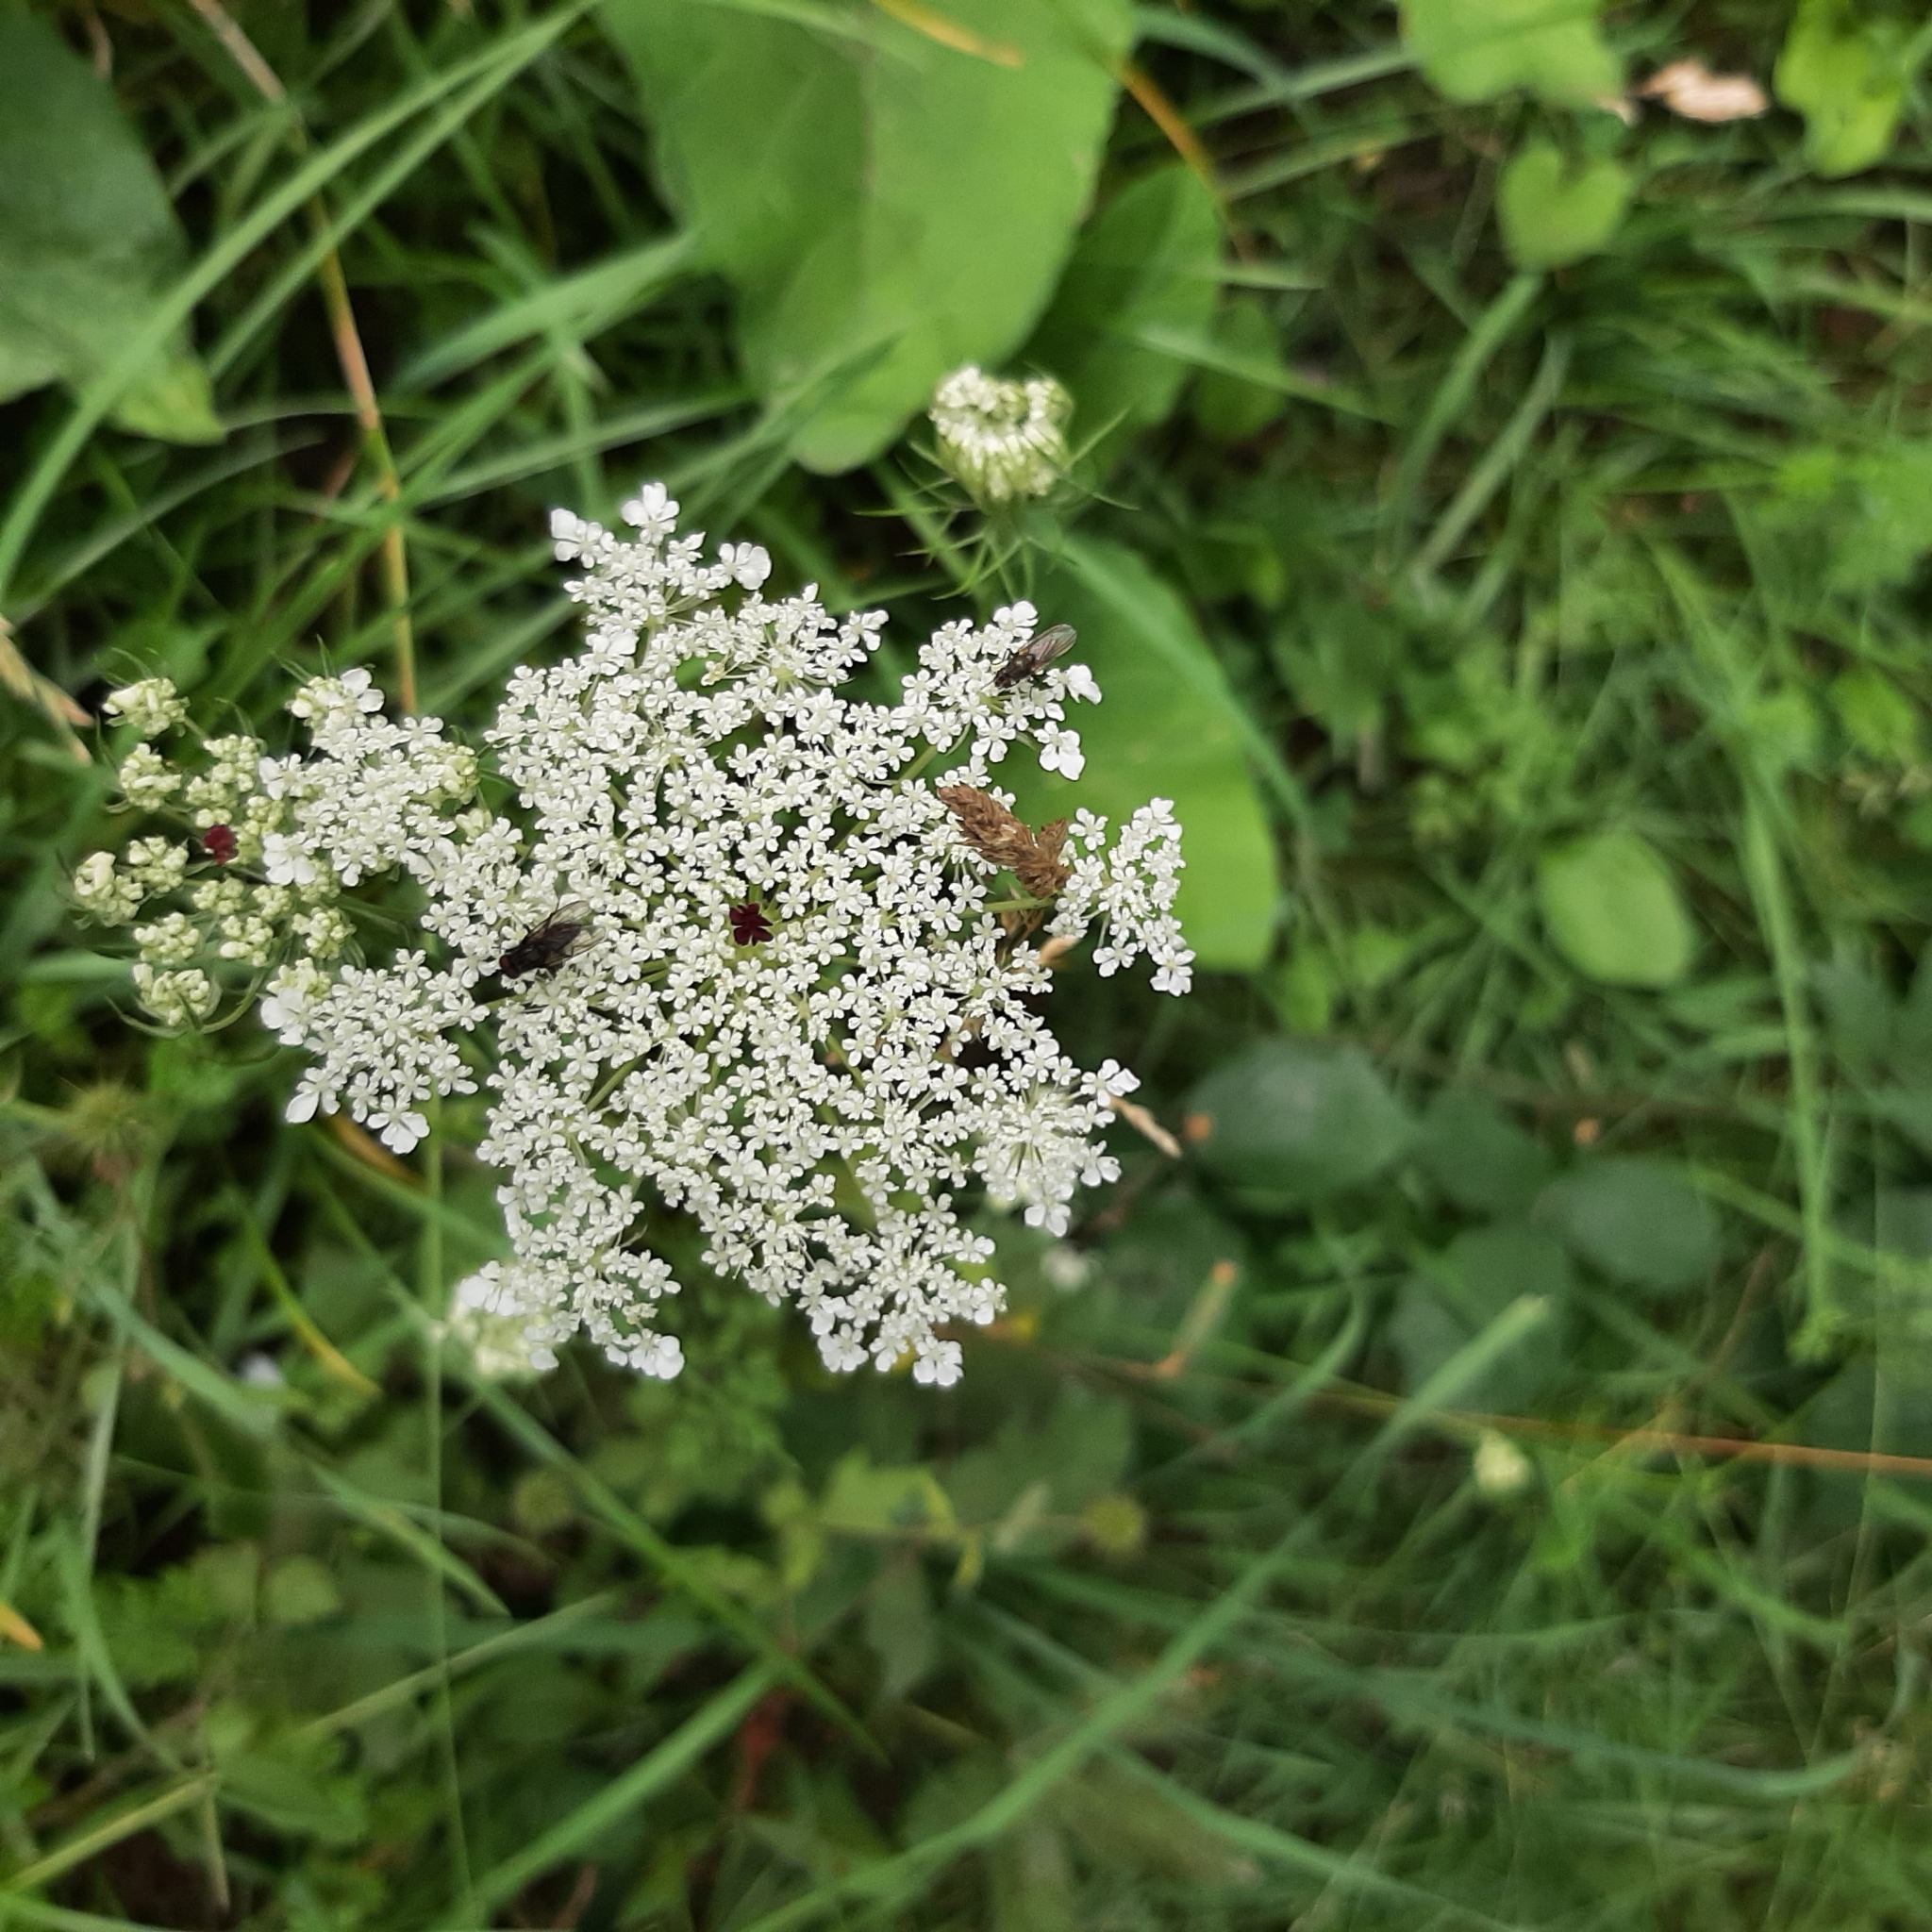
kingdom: Plantae
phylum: Tracheophyta
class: Magnoliopsida
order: Apiales
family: Apiaceae
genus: Daucus
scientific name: Daucus carota
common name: Wild carrot
